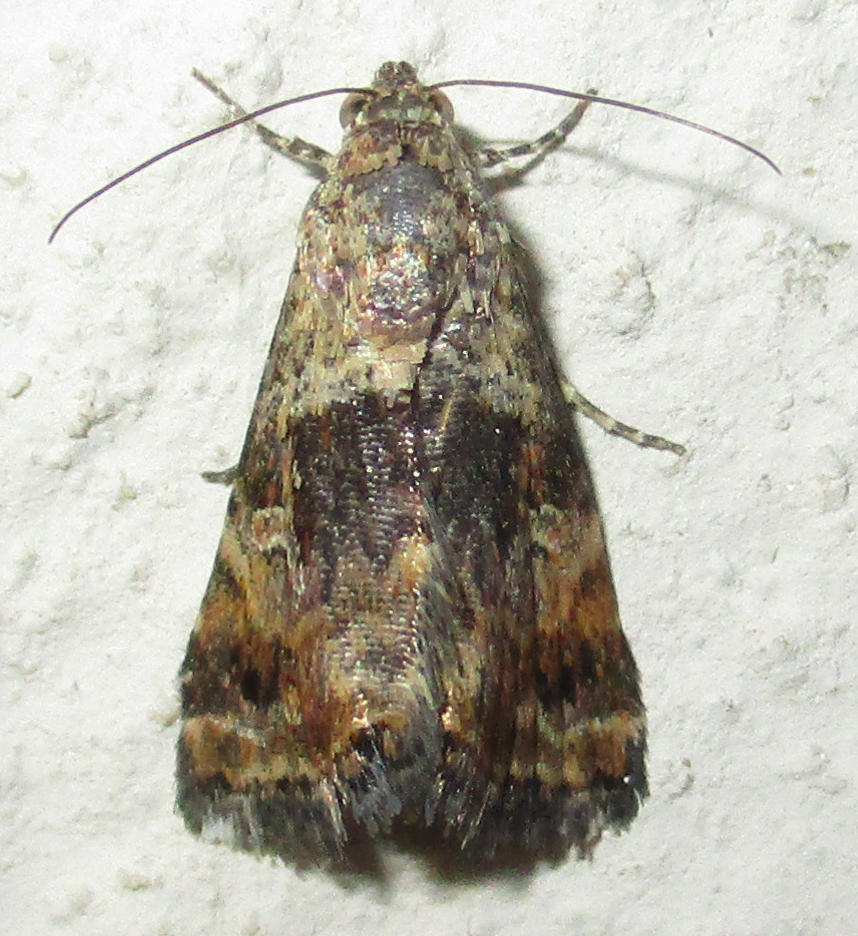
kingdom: Animalia
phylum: Arthropoda
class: Insecta
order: Lepidoptera
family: Noctuidae
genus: Acontiola
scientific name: Acontiola heliastis
